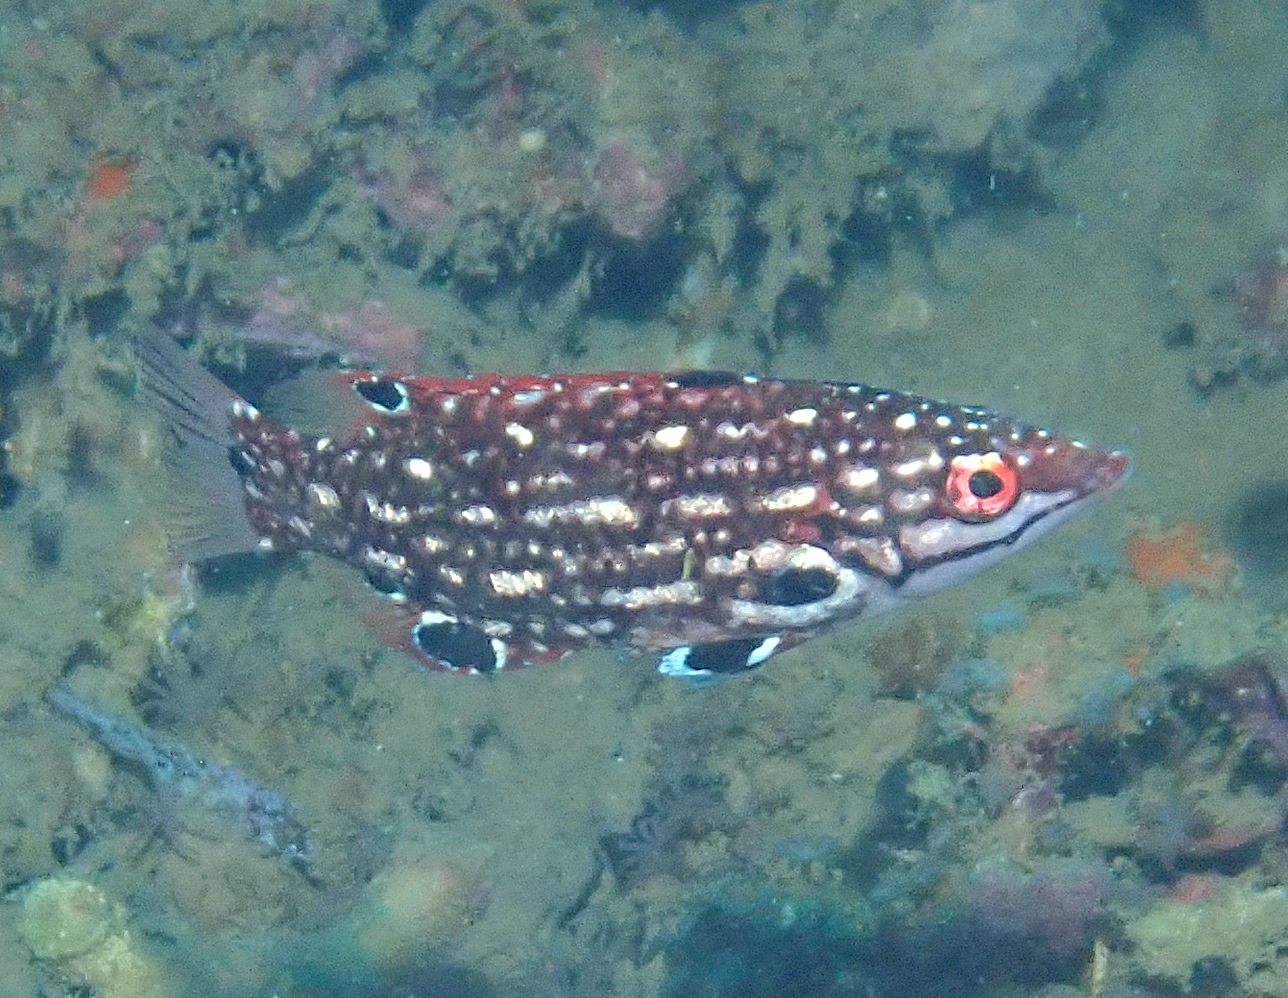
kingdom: Animalia
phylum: Chordata
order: Perciformes
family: Labridae
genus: Bodianus
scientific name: Bodianus dictynna
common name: Diana's hogfish
